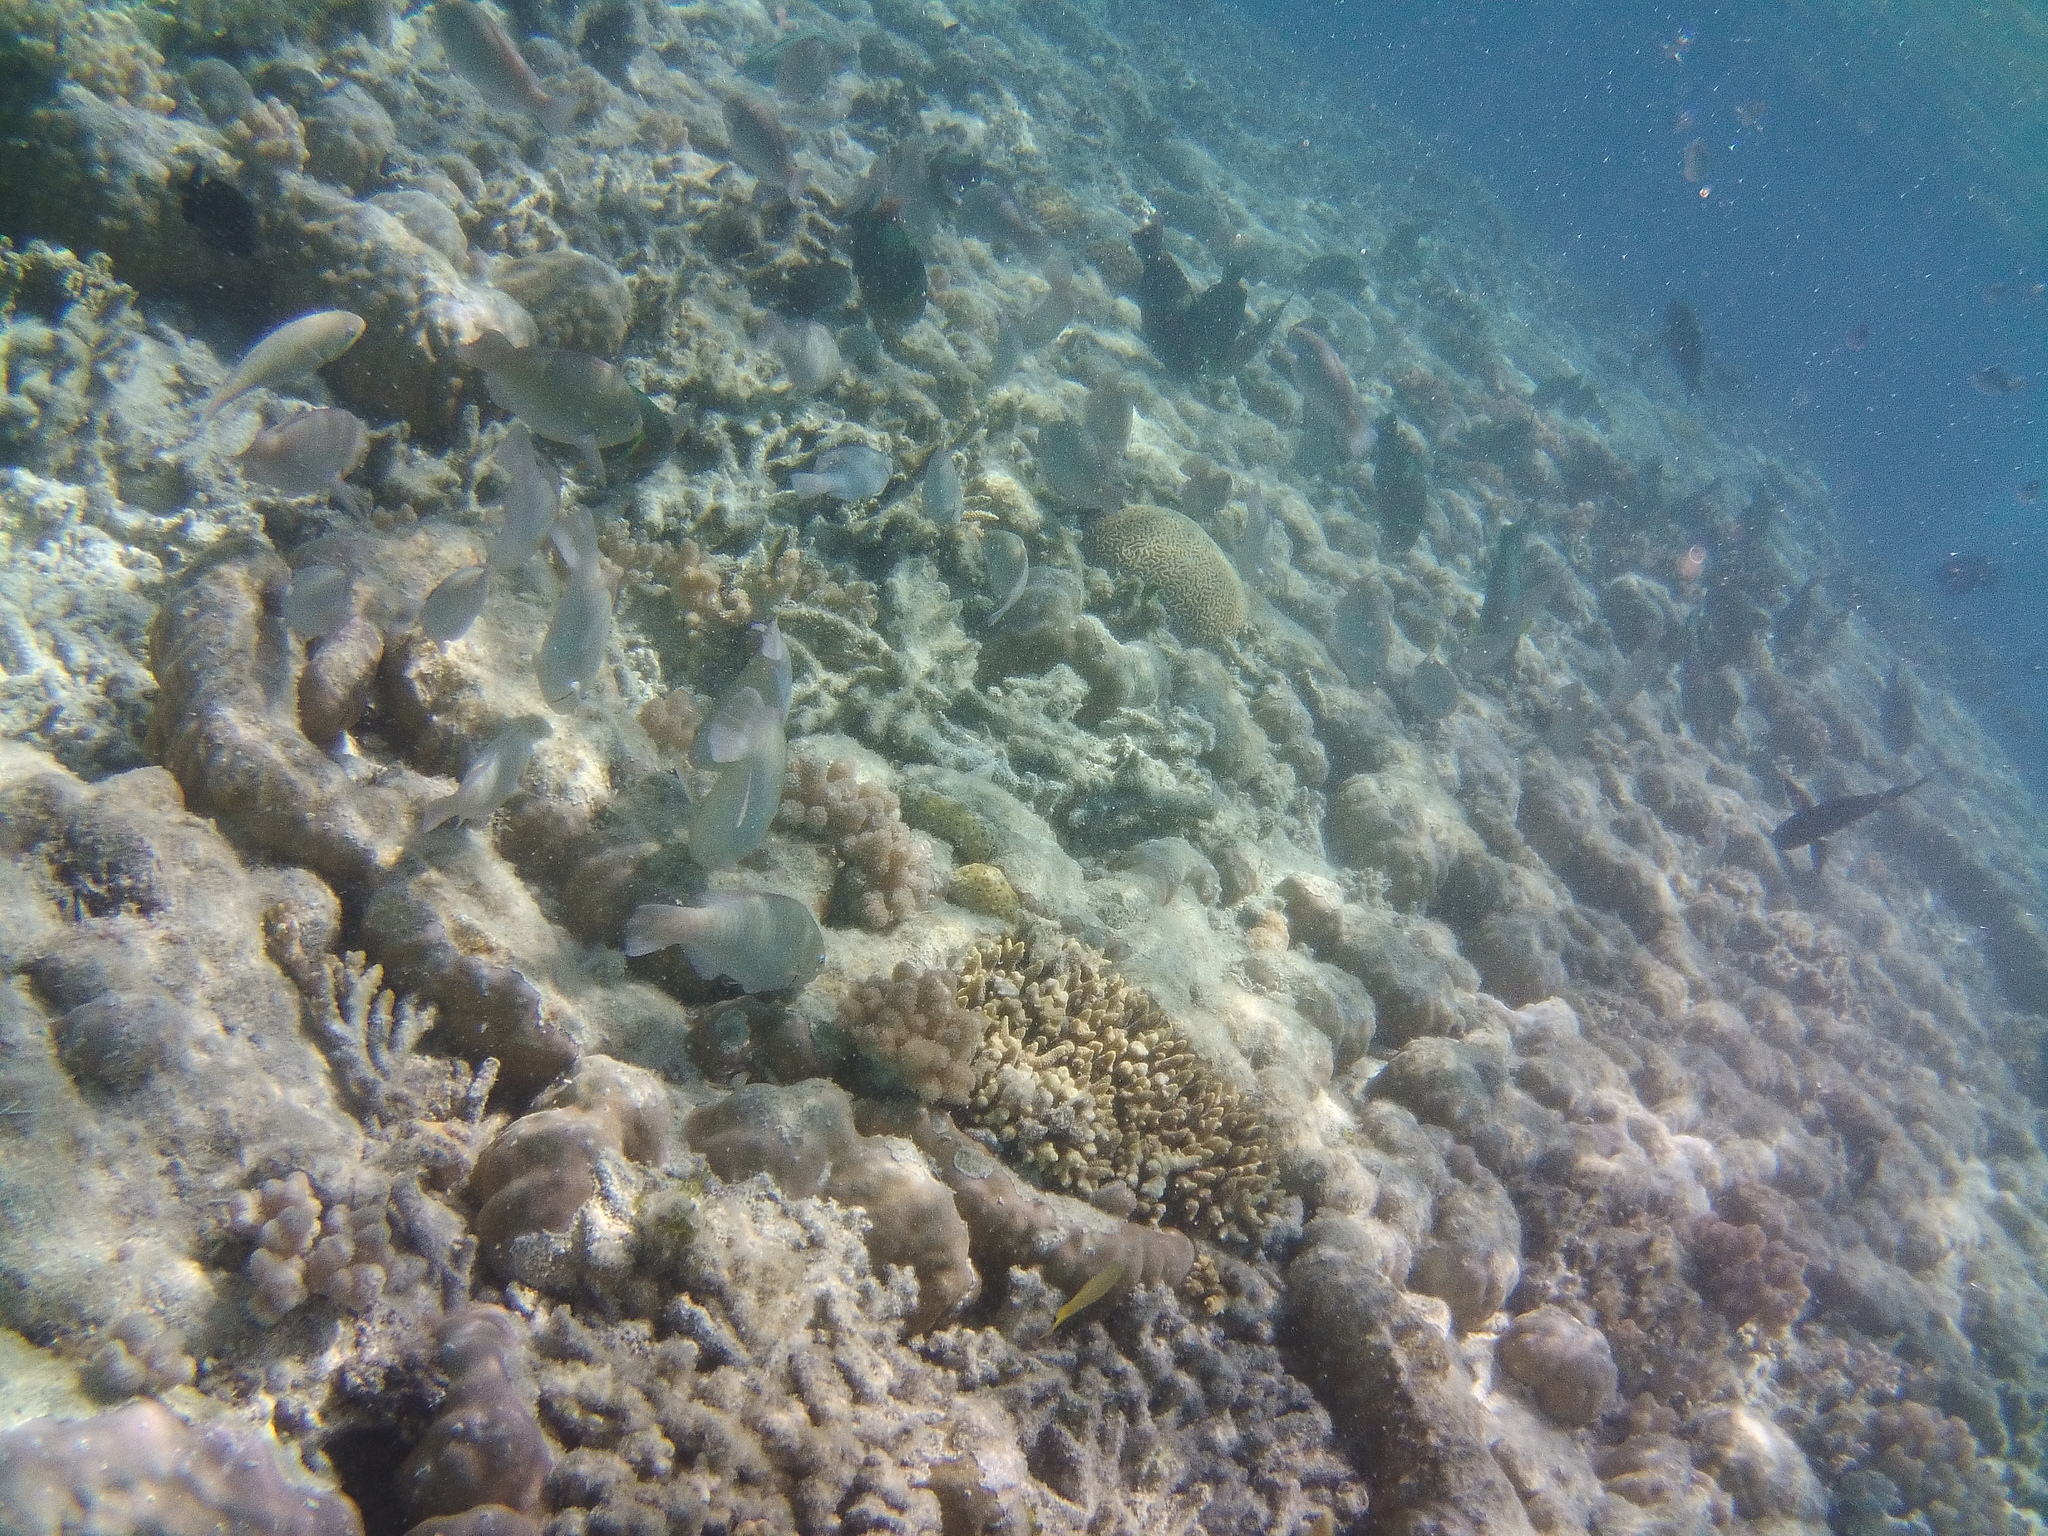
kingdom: Animalia
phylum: Chordata
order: Perciformes
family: Scaridae
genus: Scarus
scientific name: Scarus rivulatus
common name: Surf parrotfish
